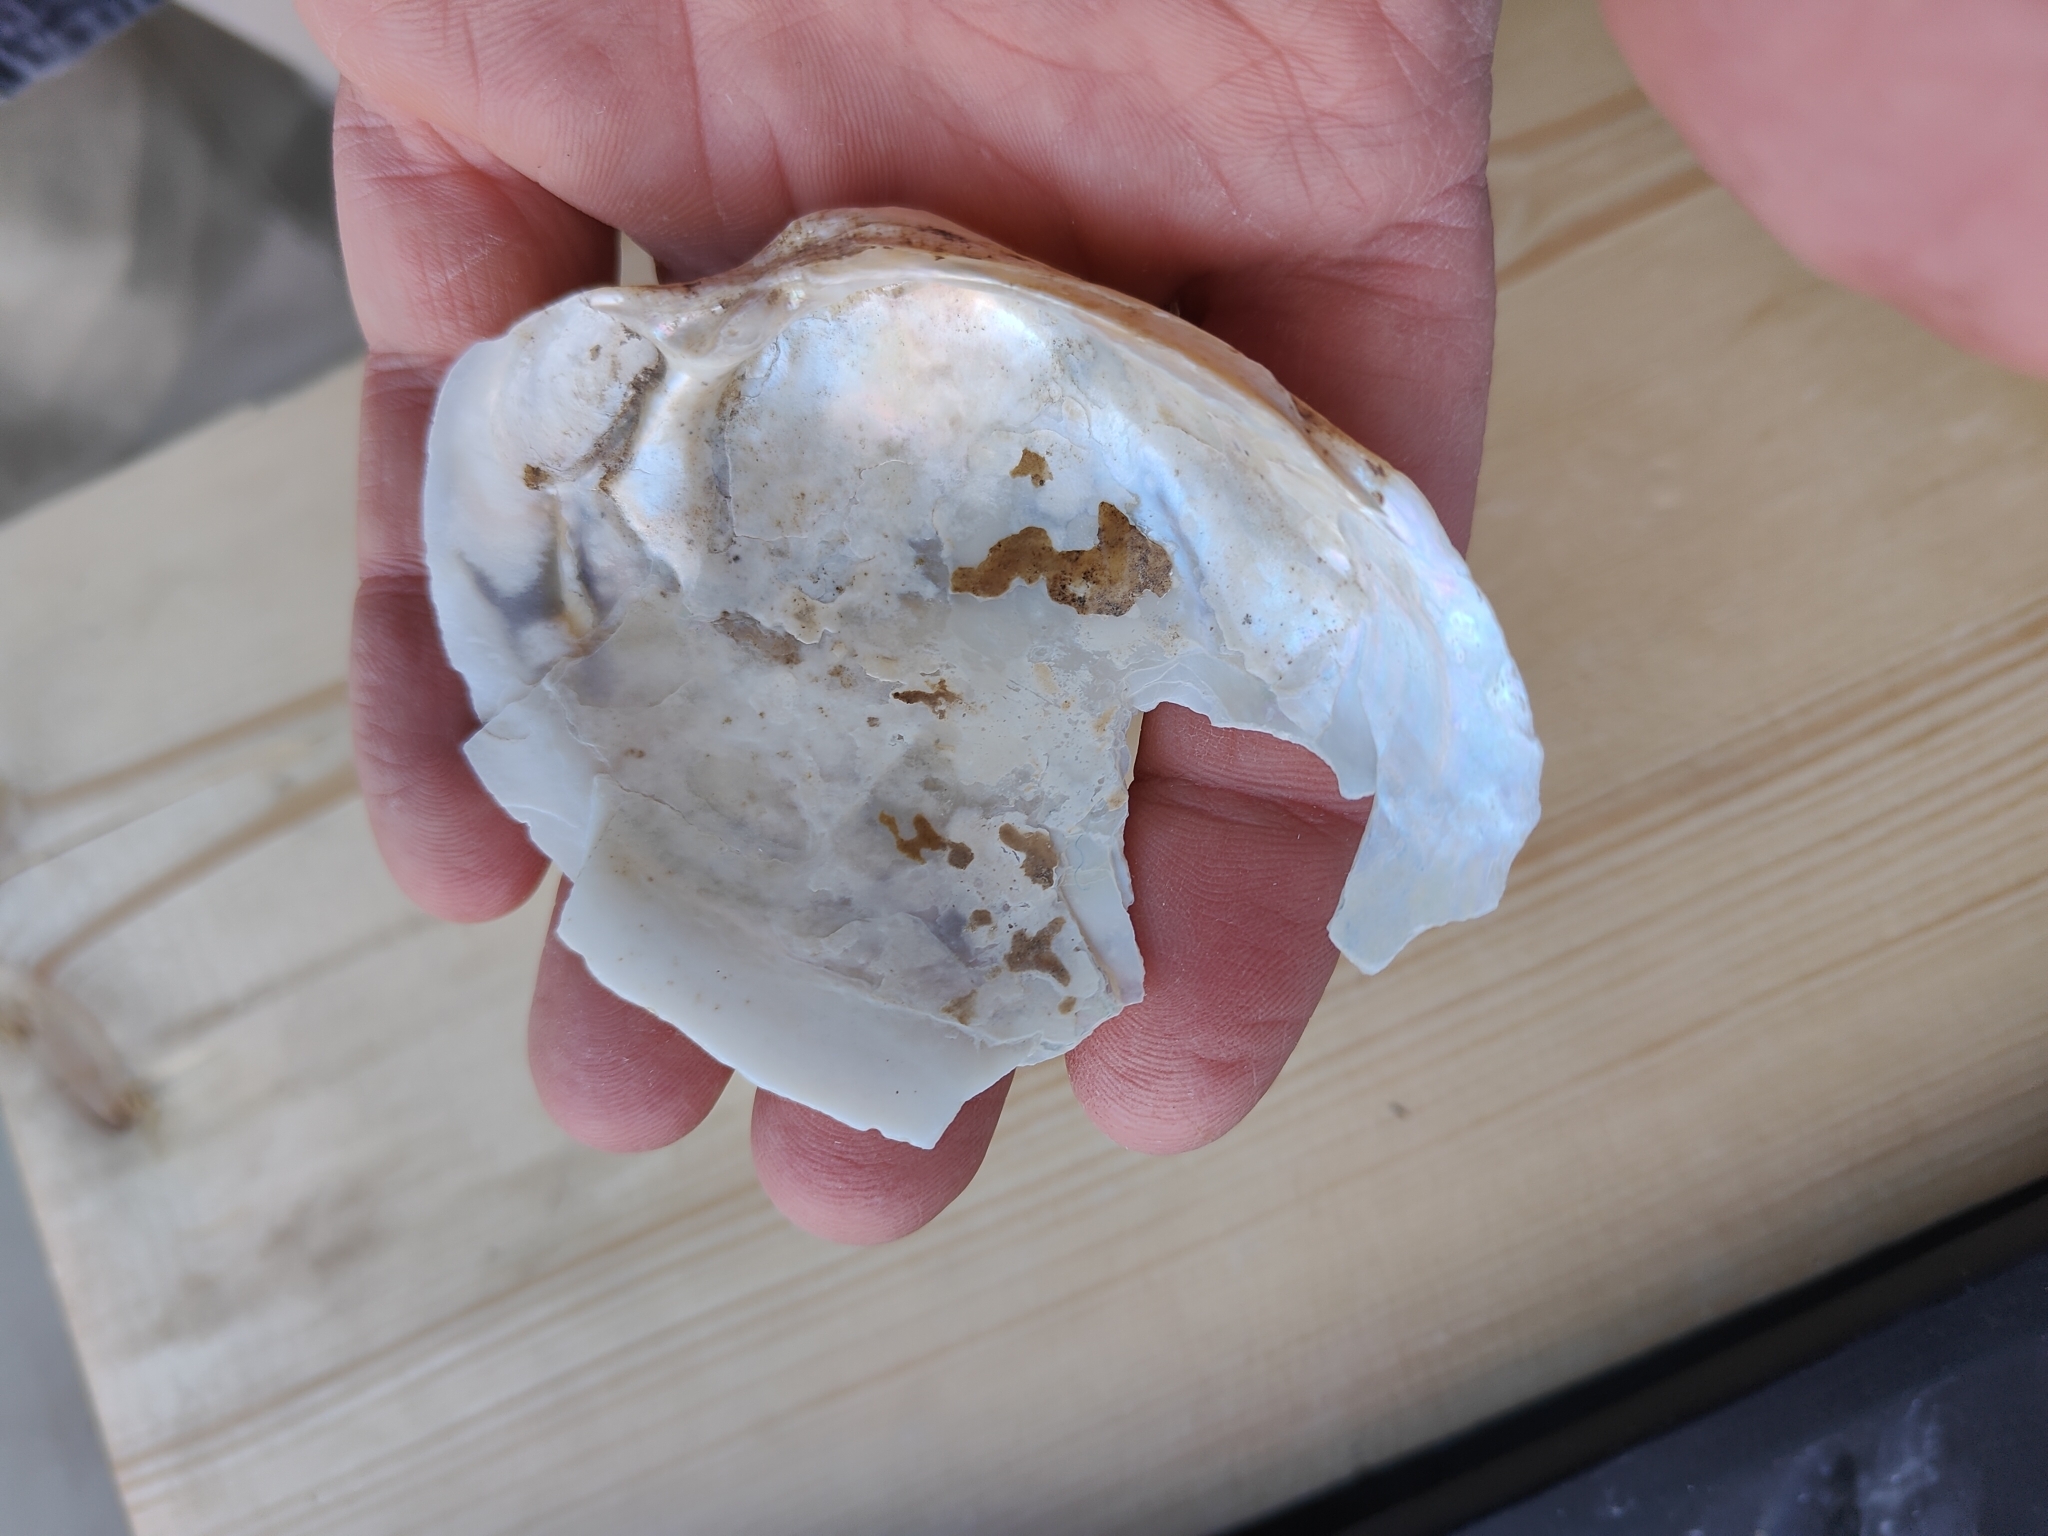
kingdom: Animalia
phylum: Mollusca
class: Bivalvia
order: Unionida
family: Unionidae
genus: Lampsilis
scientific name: Lampsilis cardium
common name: Plain pocketbook
